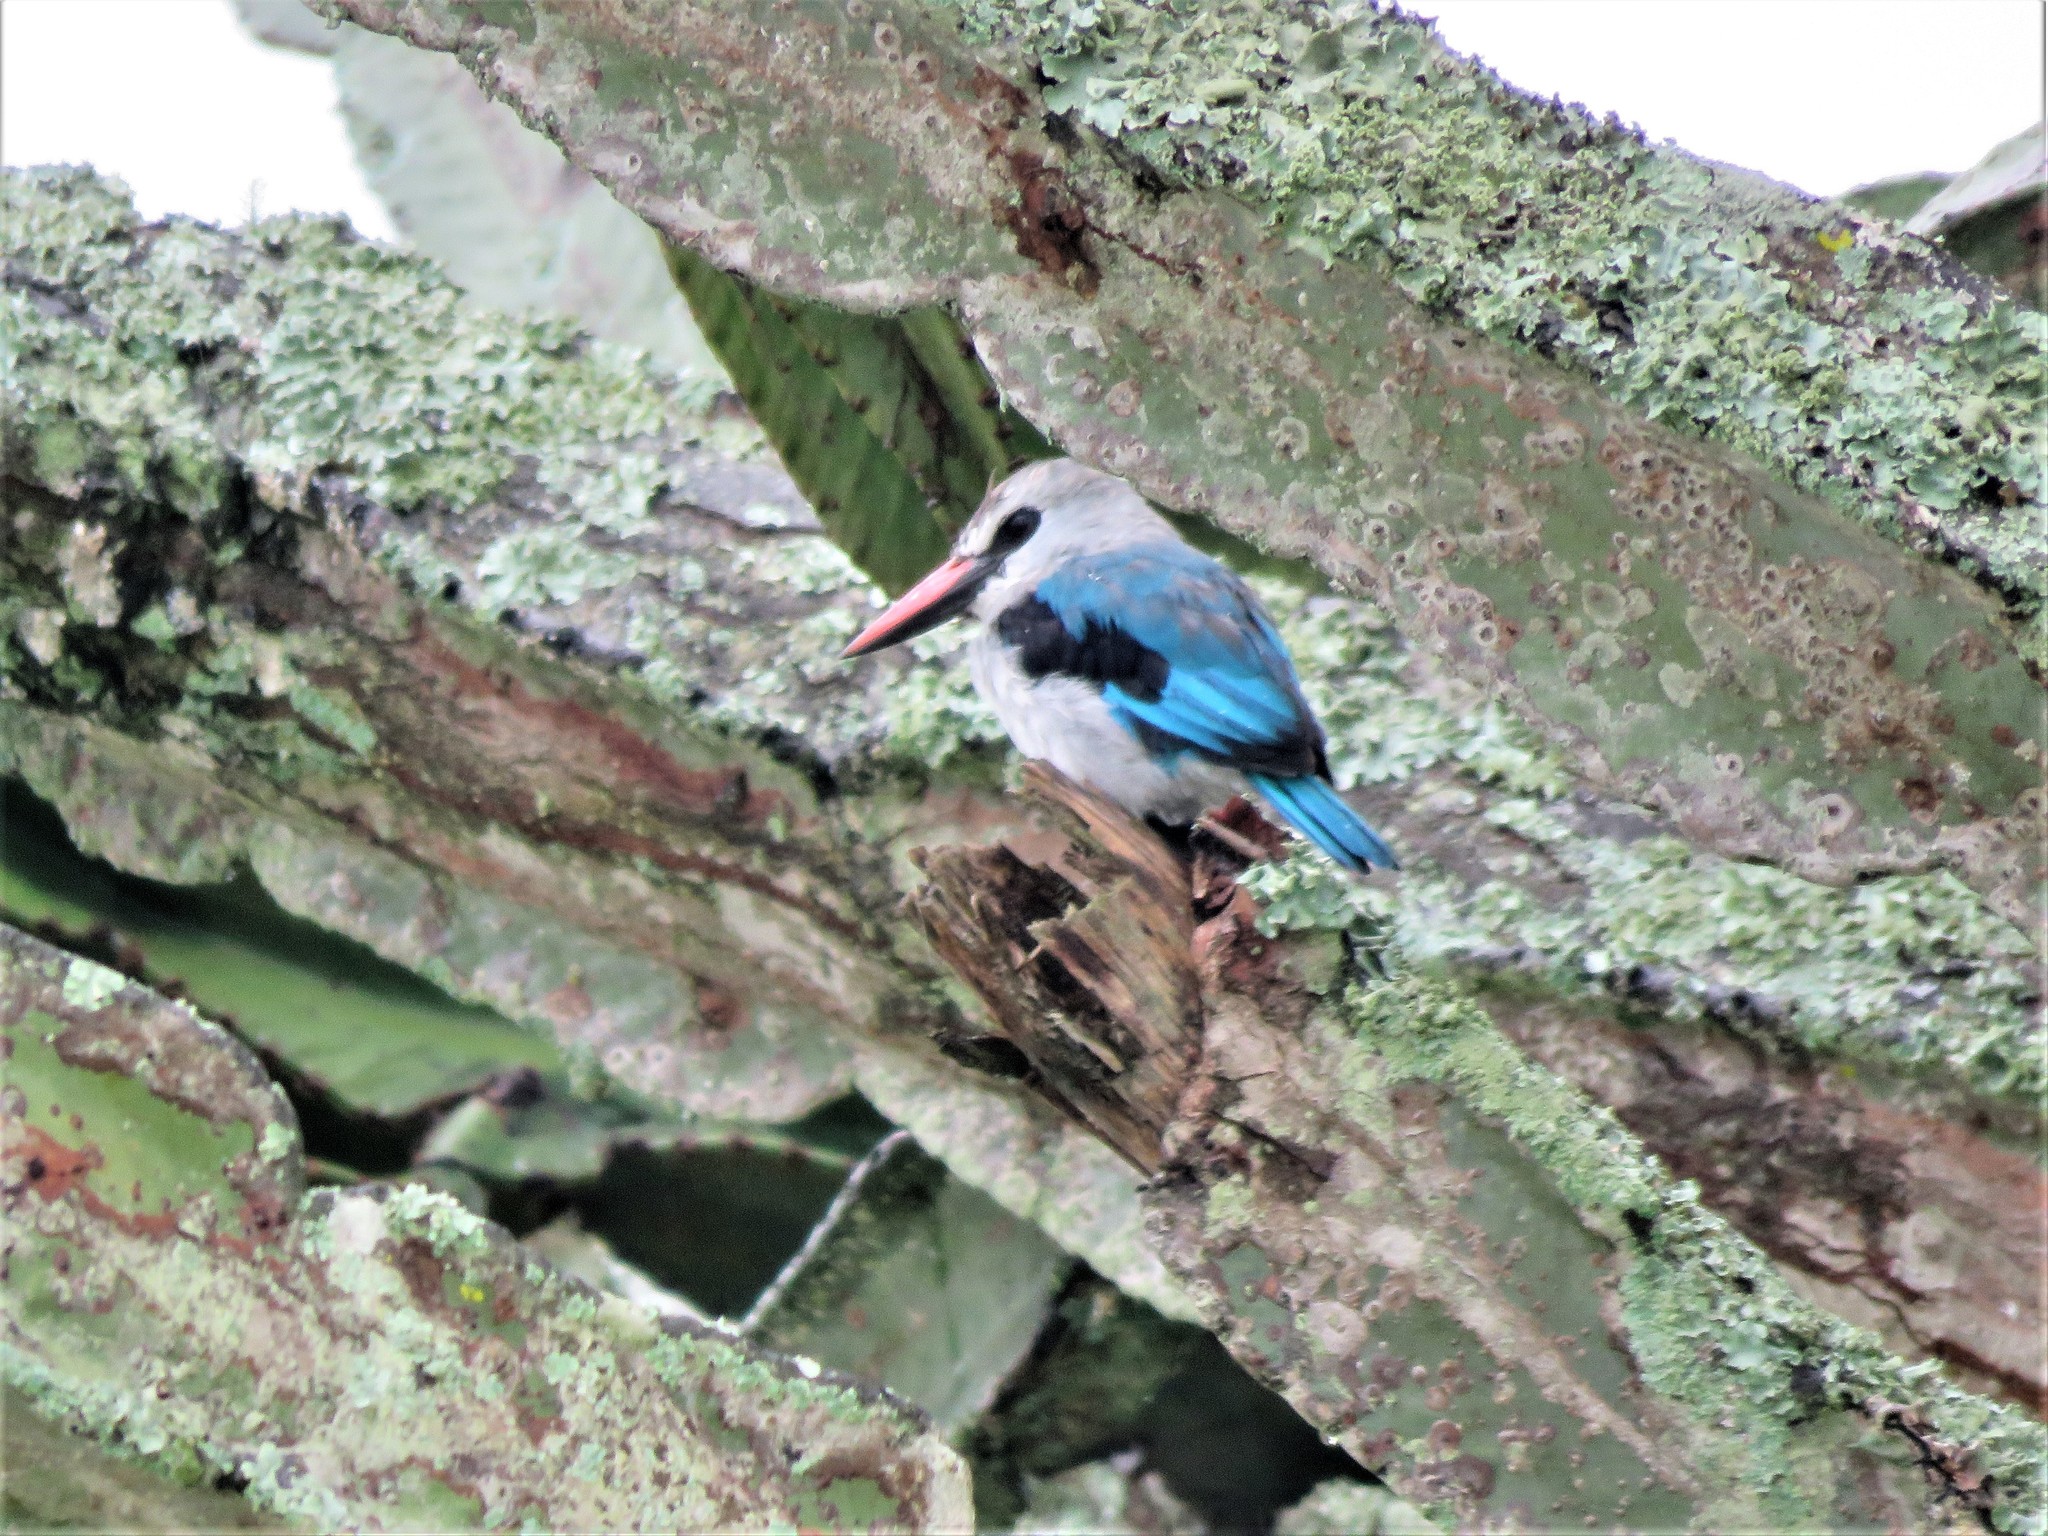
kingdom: Animalia
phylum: Chordata
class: Aves
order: Coraciiformes
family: Alcedinidae
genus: Halcyon
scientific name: Halcyon senegalensis
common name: Woodland kingfisher
